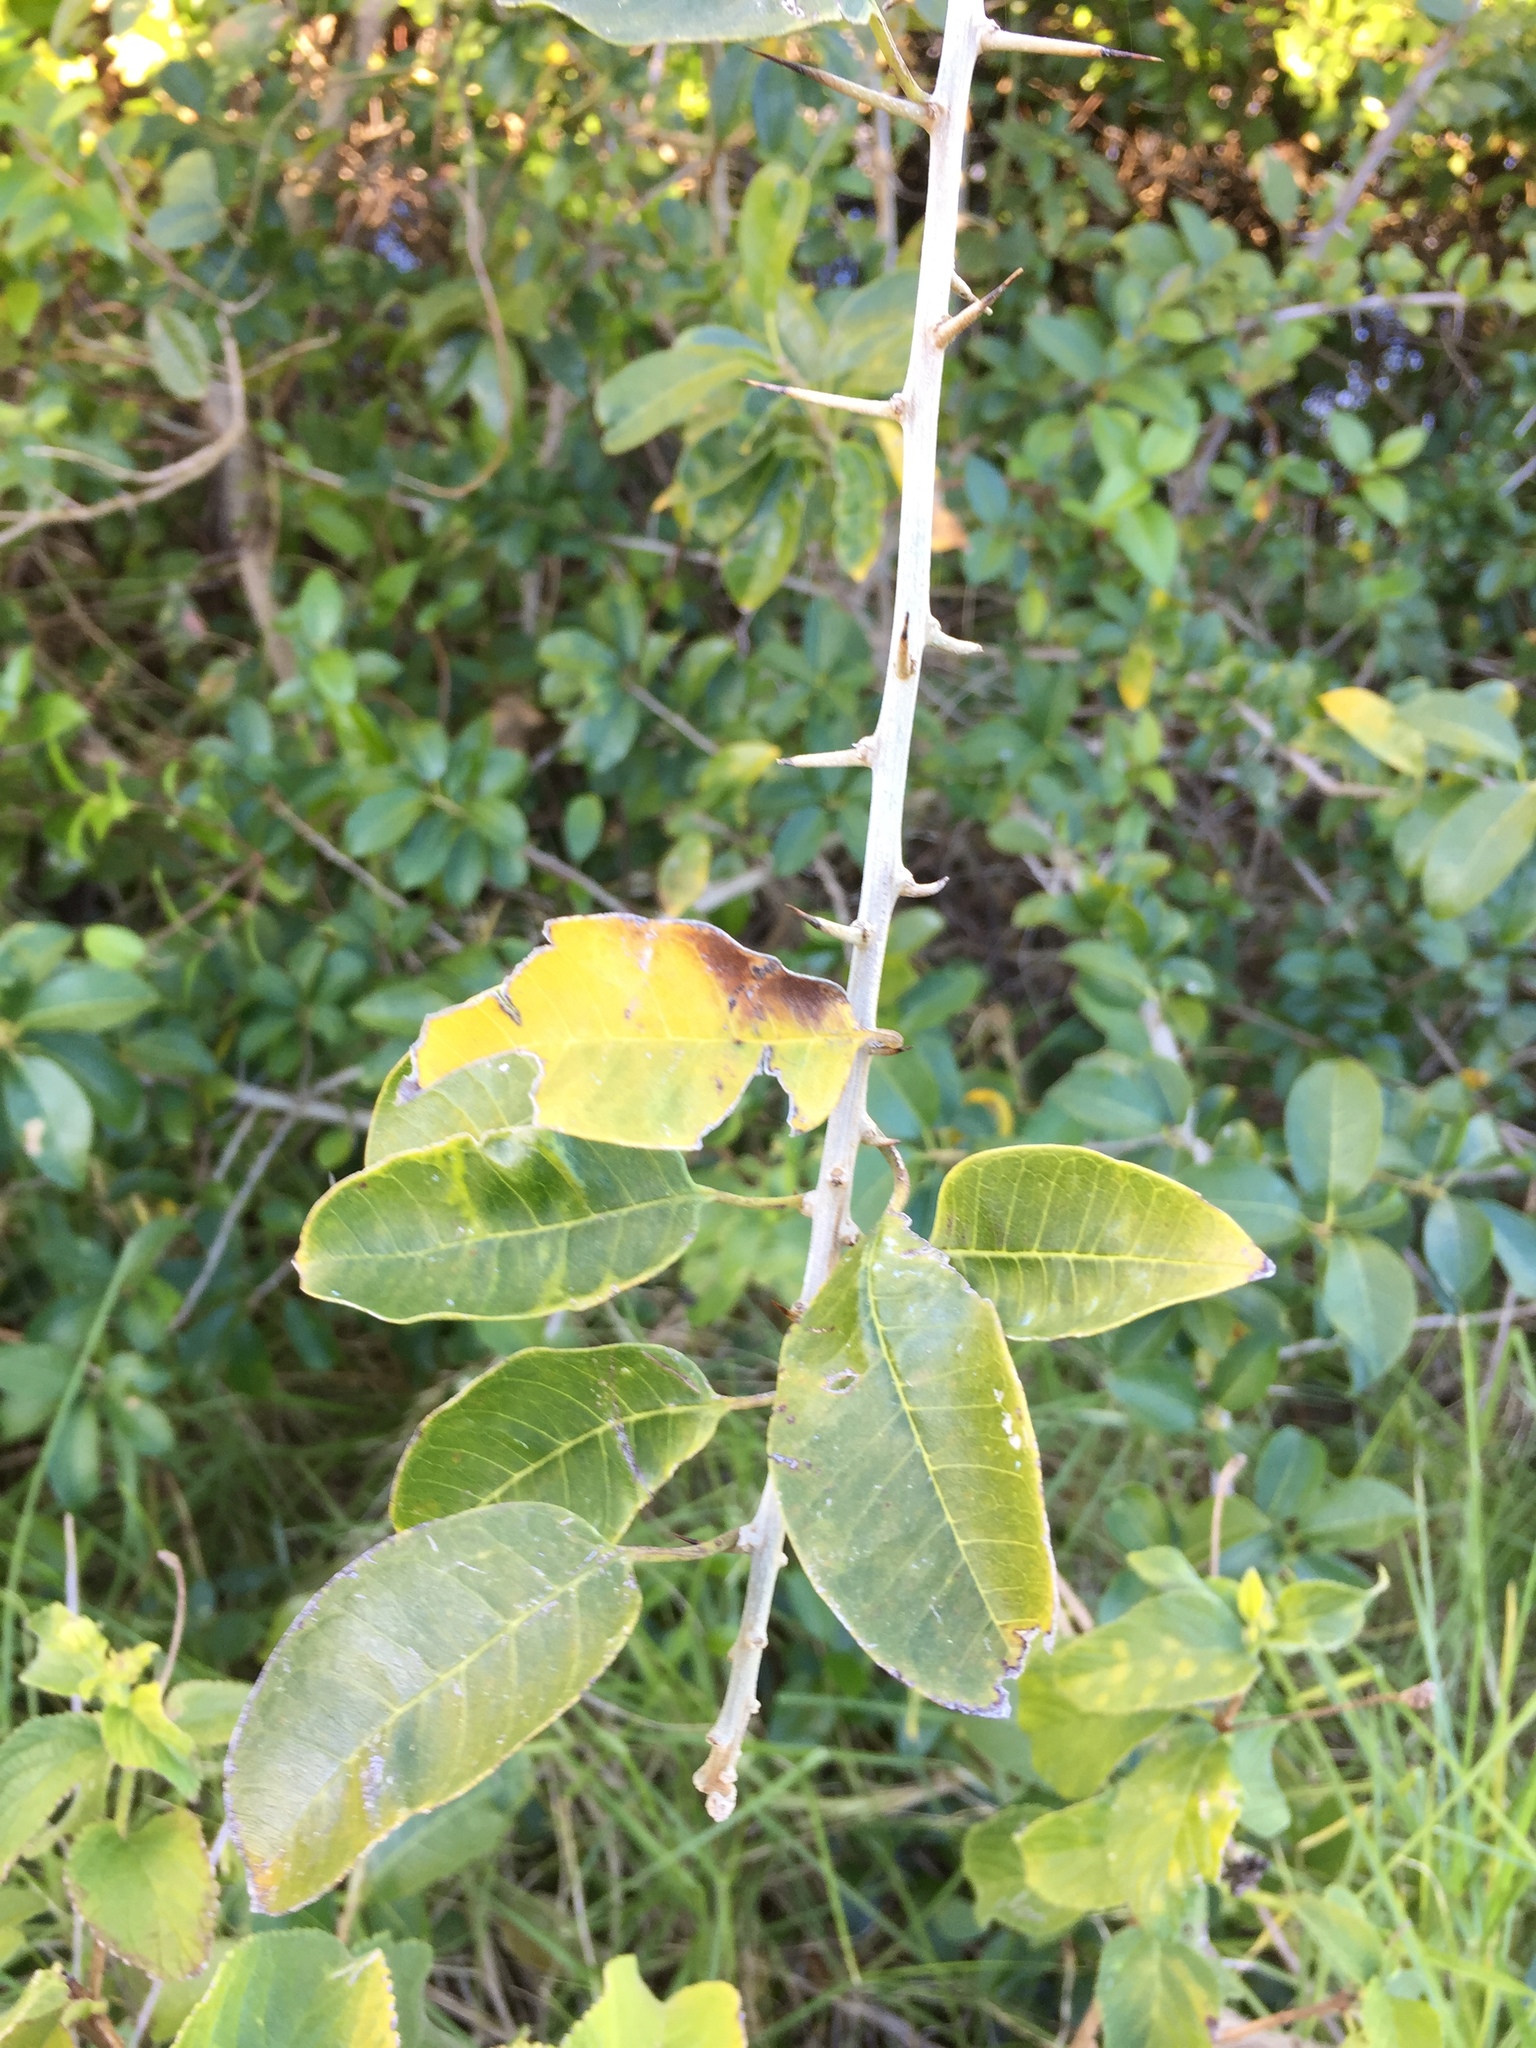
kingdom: Plantae
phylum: Tracheophyta
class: Magnoliopsida
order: Rosales
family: Moraceae
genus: Maclura
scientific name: Maclura cochinchinensis
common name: Cockspurthorn
